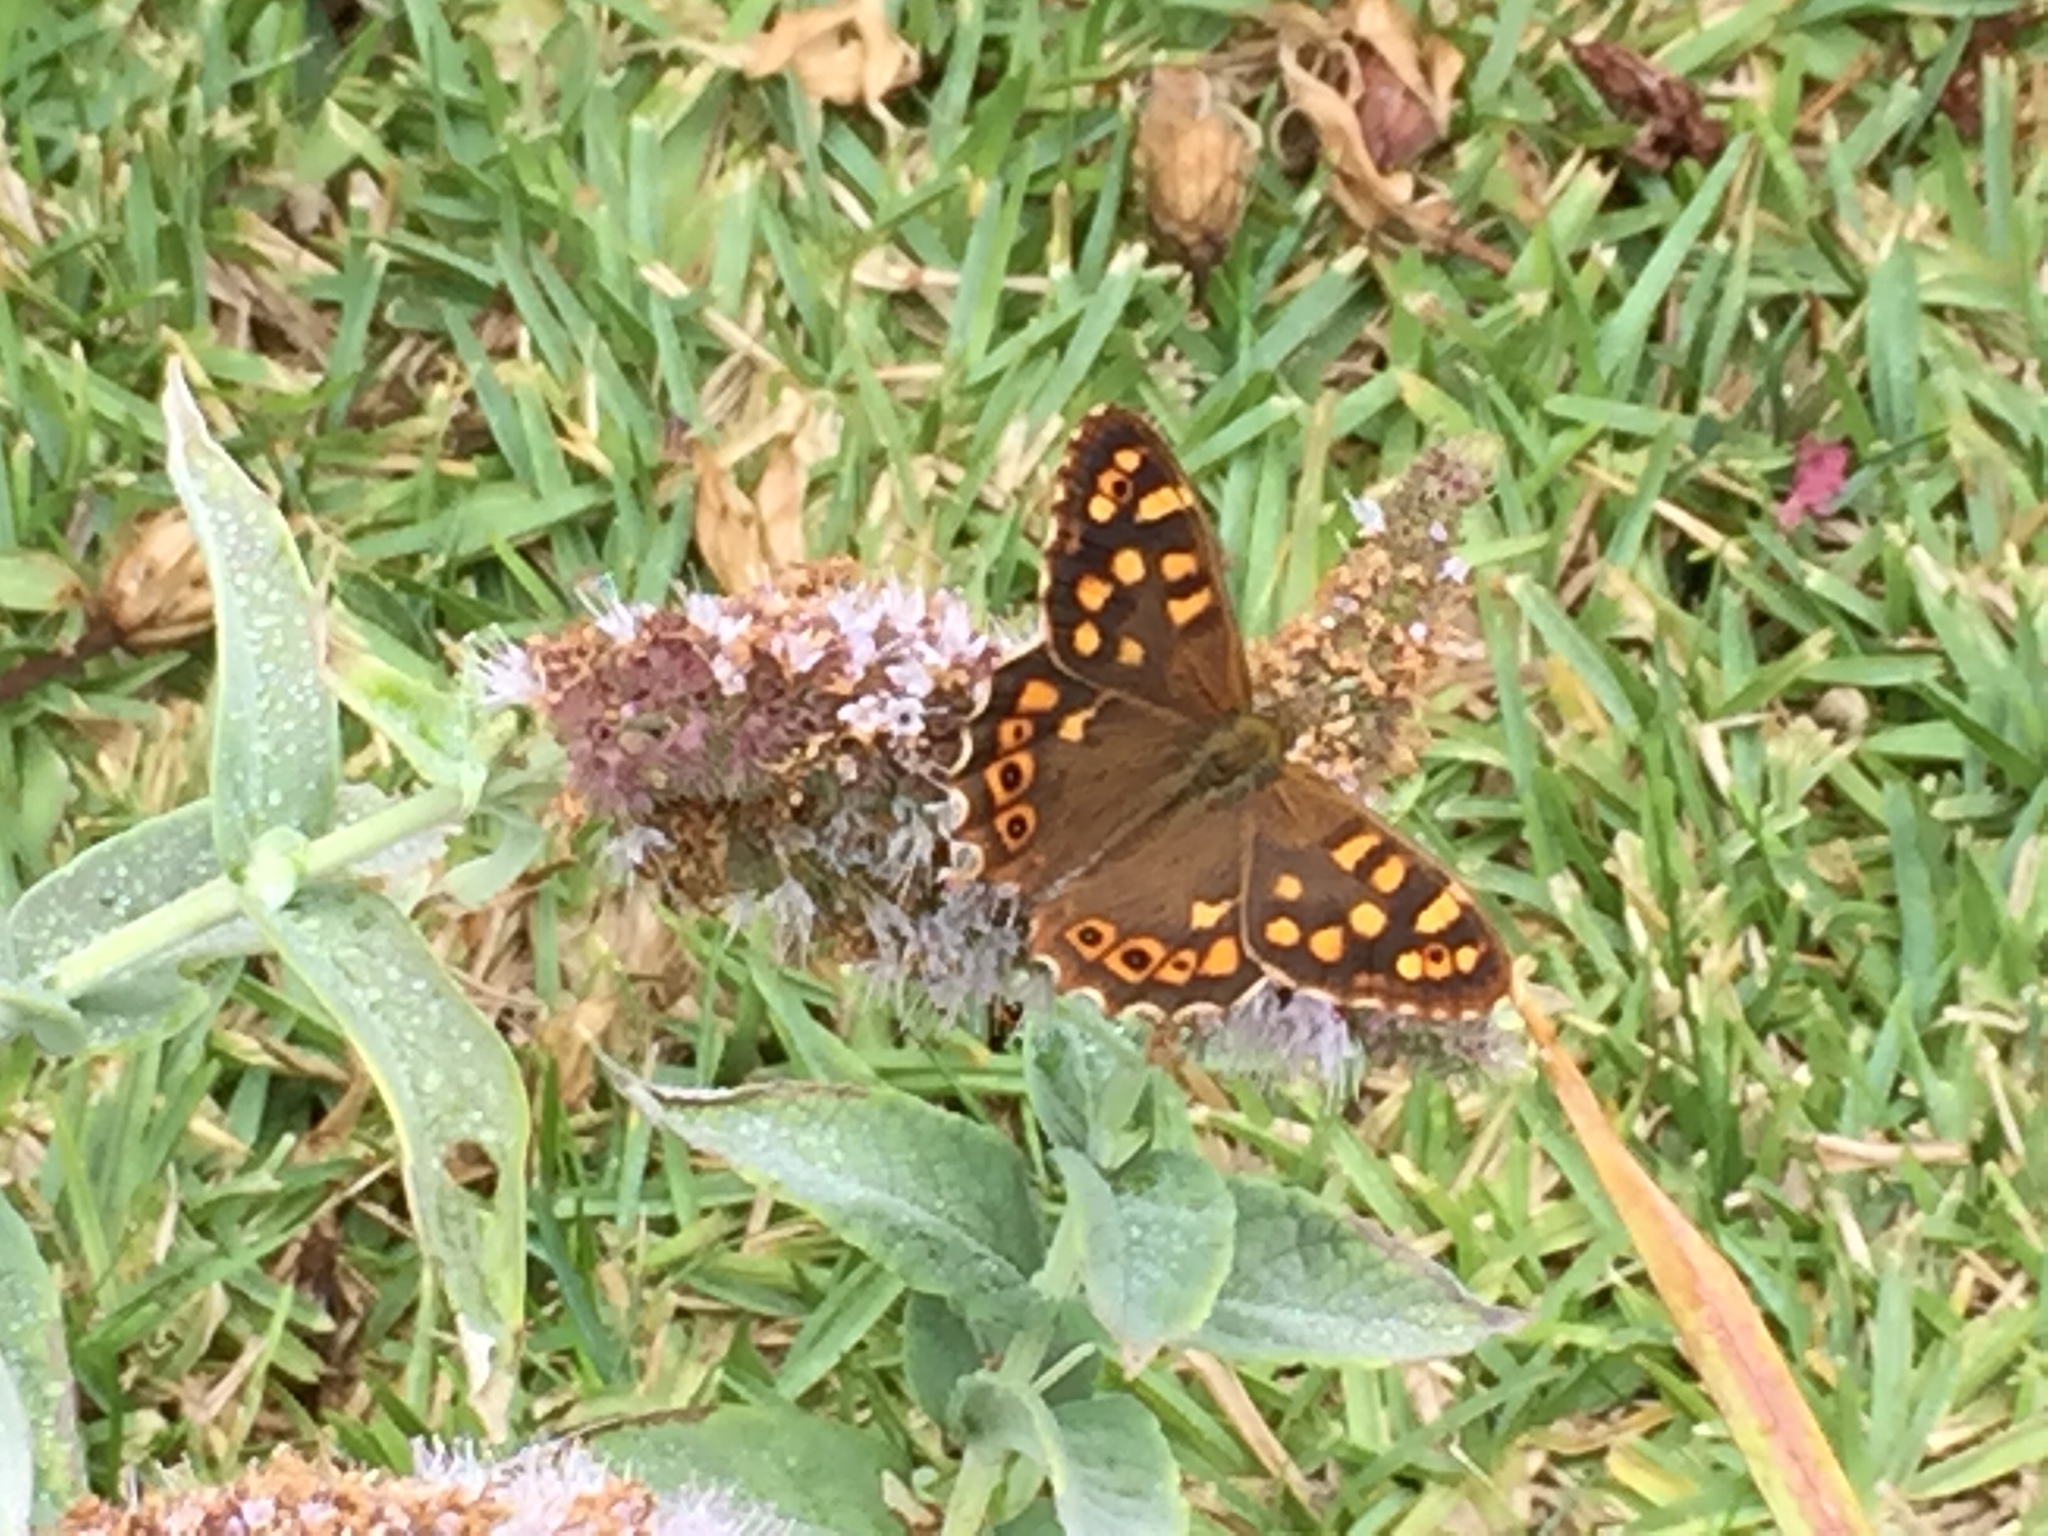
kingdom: Animalia
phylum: Arthropoda
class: Insecta
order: Lepidoptera
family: Nymphalidae
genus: Pararge
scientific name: Pararge aegeria
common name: Speckled wood
